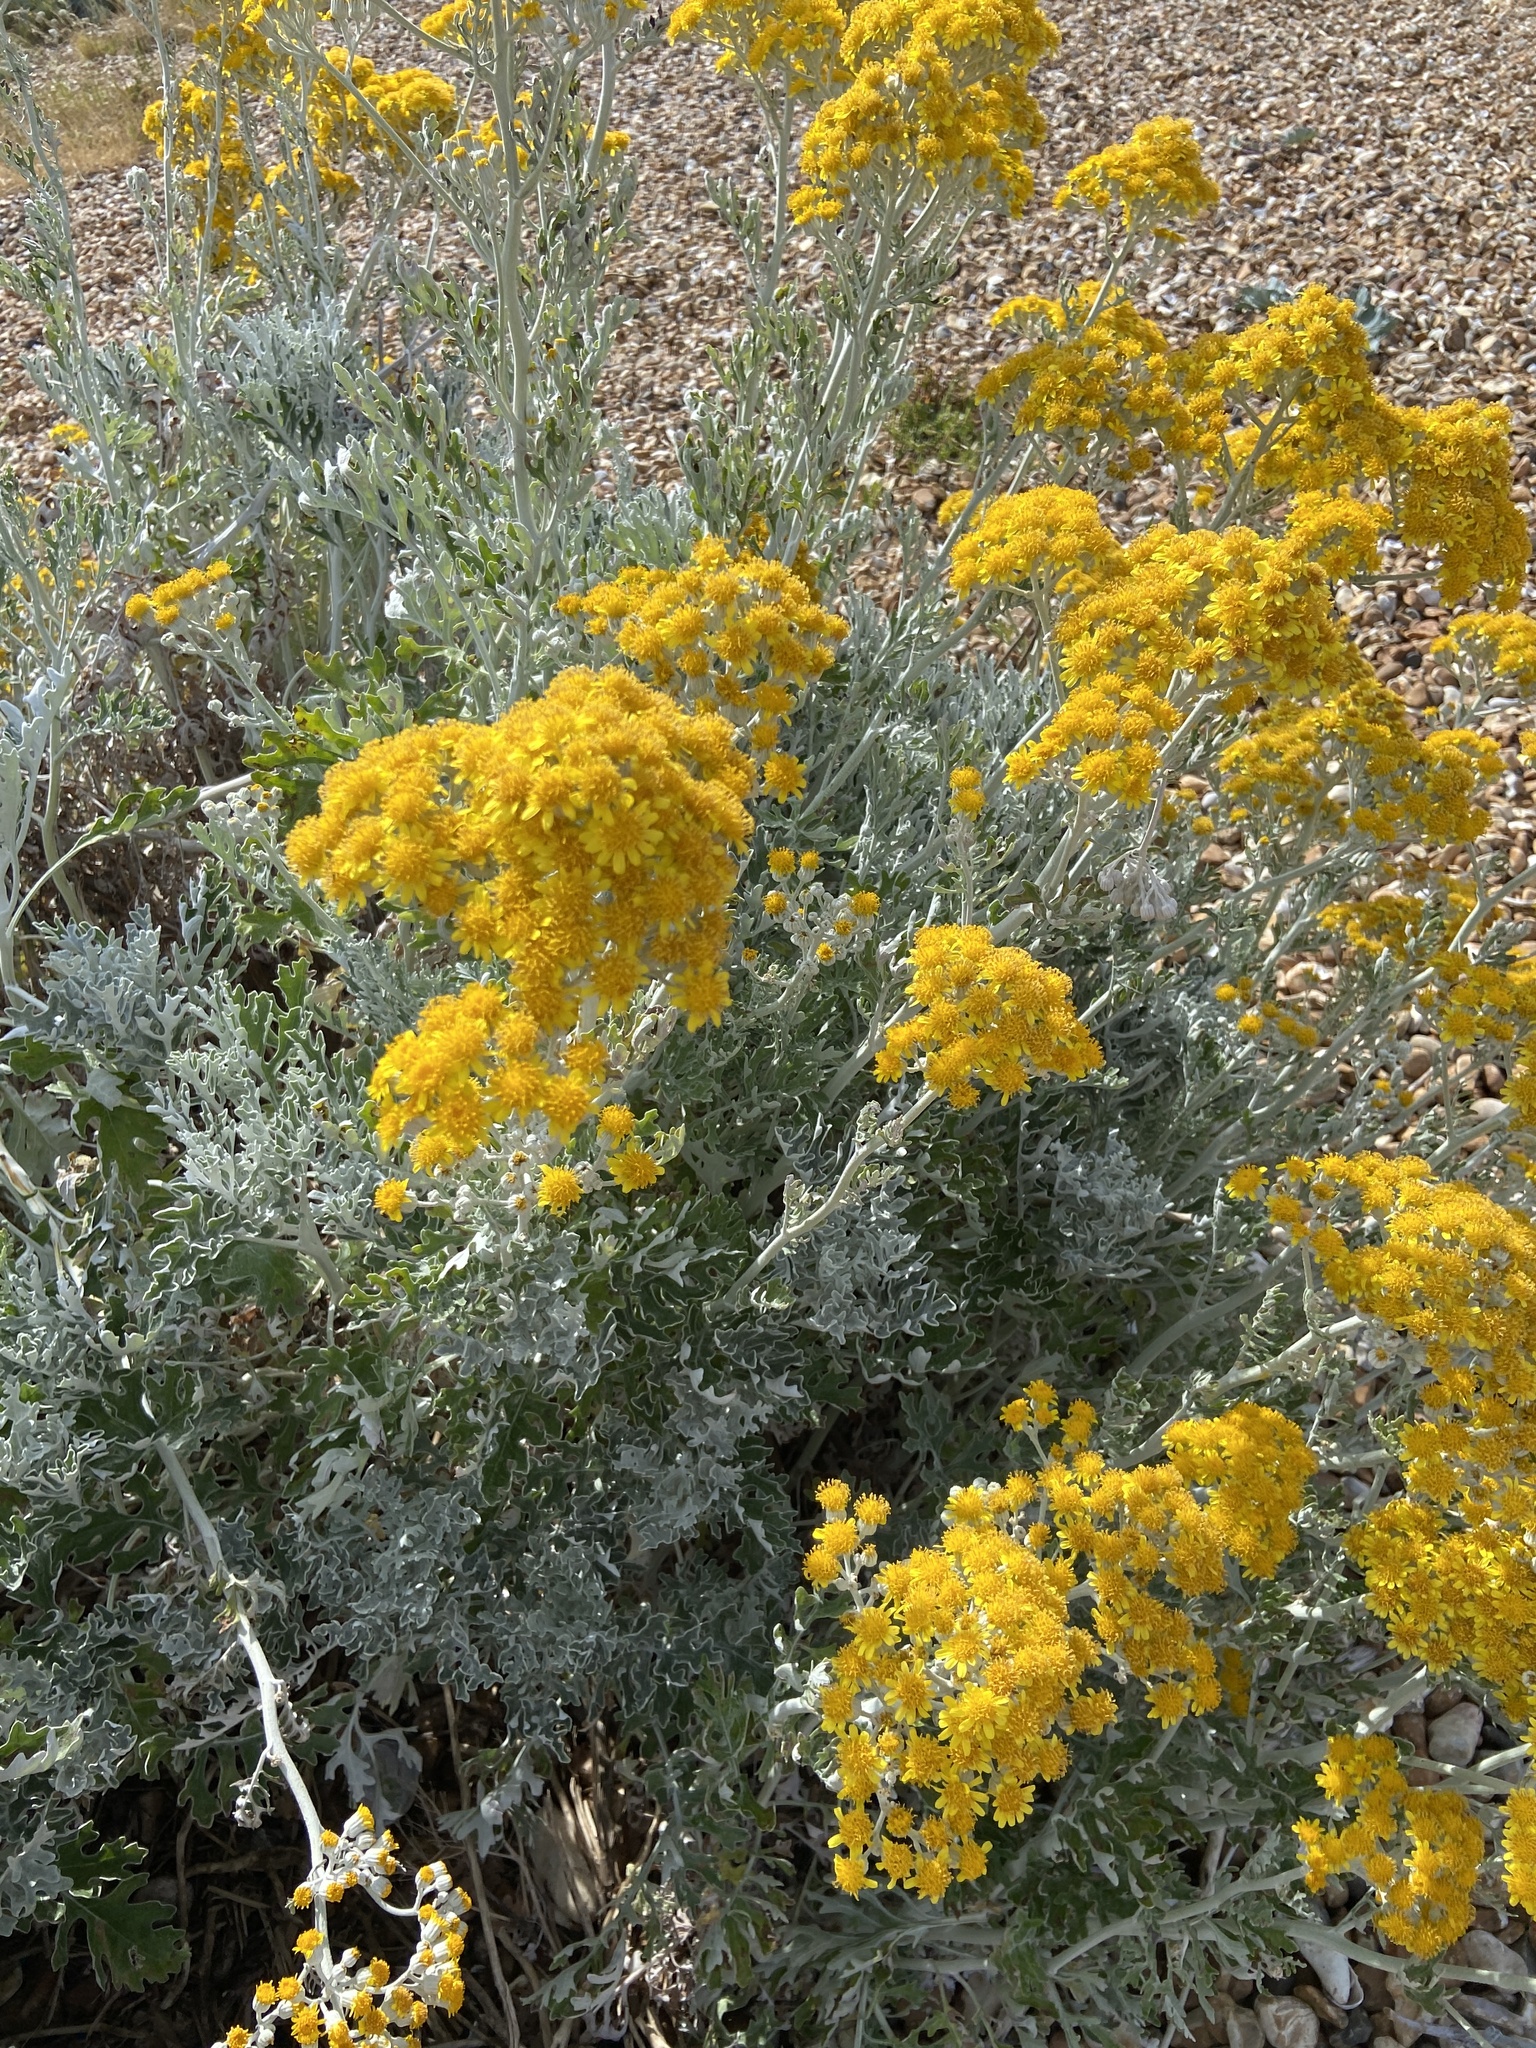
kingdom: Plantae
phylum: Tracheophyta
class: Magnoliopsida
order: Asterales
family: Asteraceae
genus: Jacobaea
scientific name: Jacobaea maritima
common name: Silver ragwort
